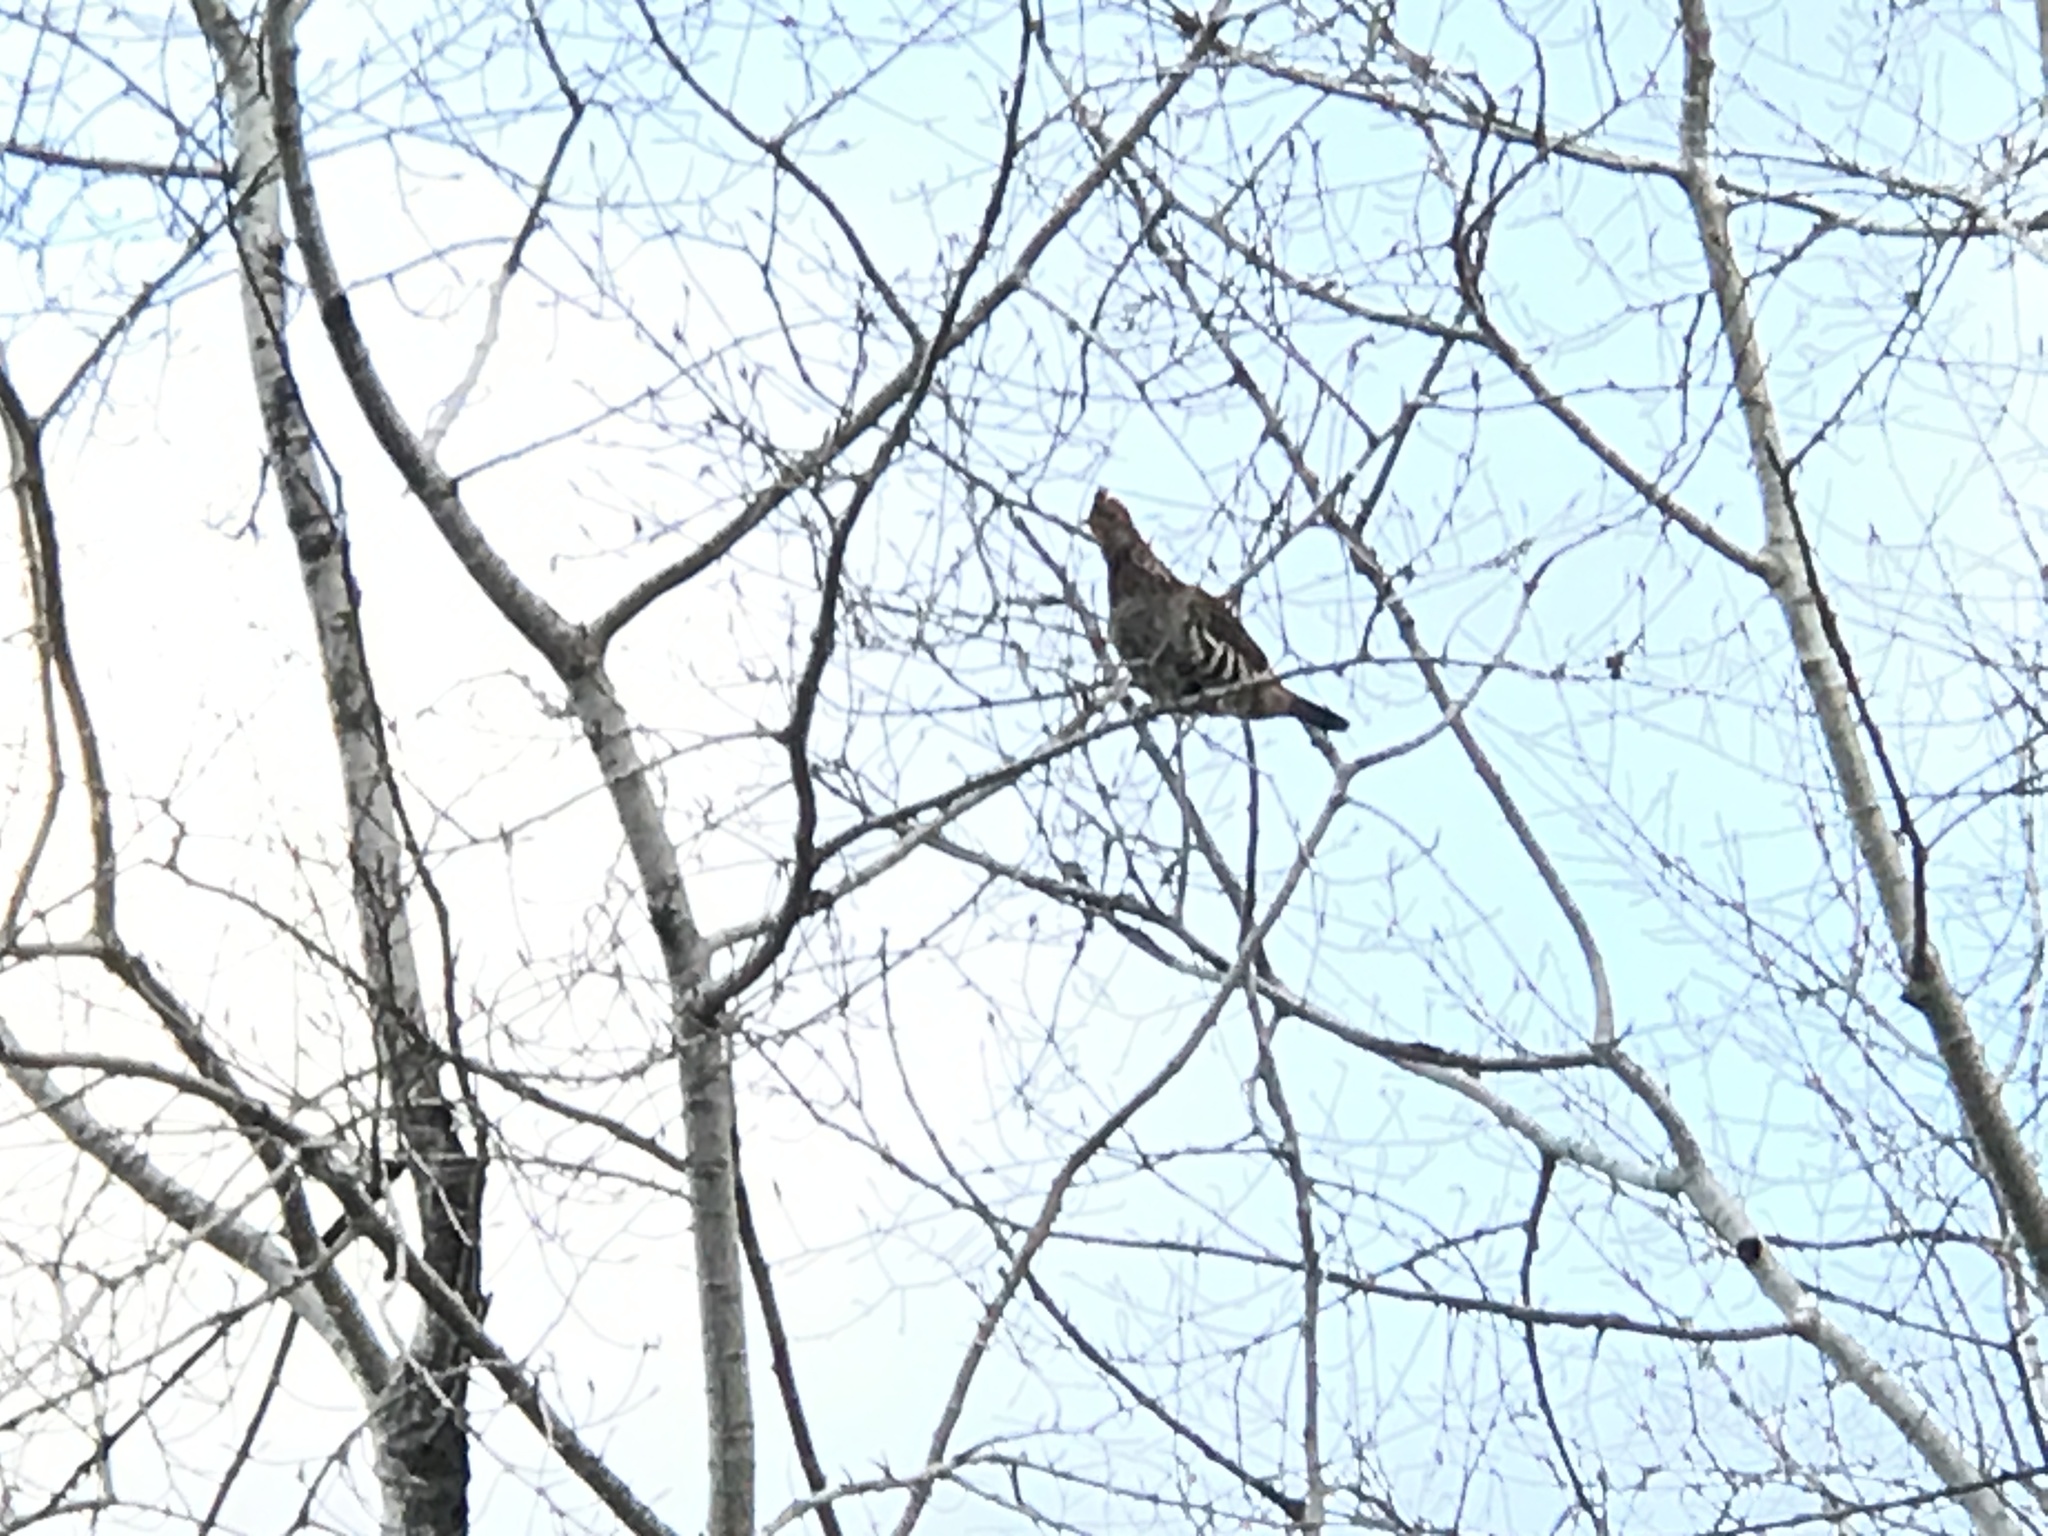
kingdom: Animalia
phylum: Chordata
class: Aves
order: Galliformes
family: Phasianidae
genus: Bonasa
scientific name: Bonasa umbellus
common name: Ruffed grouse
